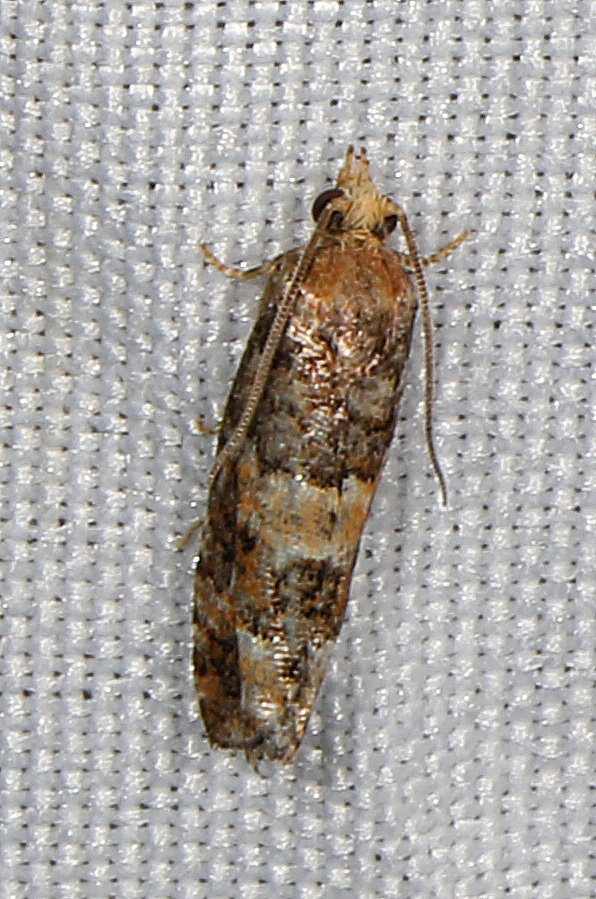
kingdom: Animalia
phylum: Arthropoda
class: Insecta
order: Lepidoptera
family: Tortricidae
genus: Eucopina
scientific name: Eucopina tocullionana
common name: White pinecone borer moth
